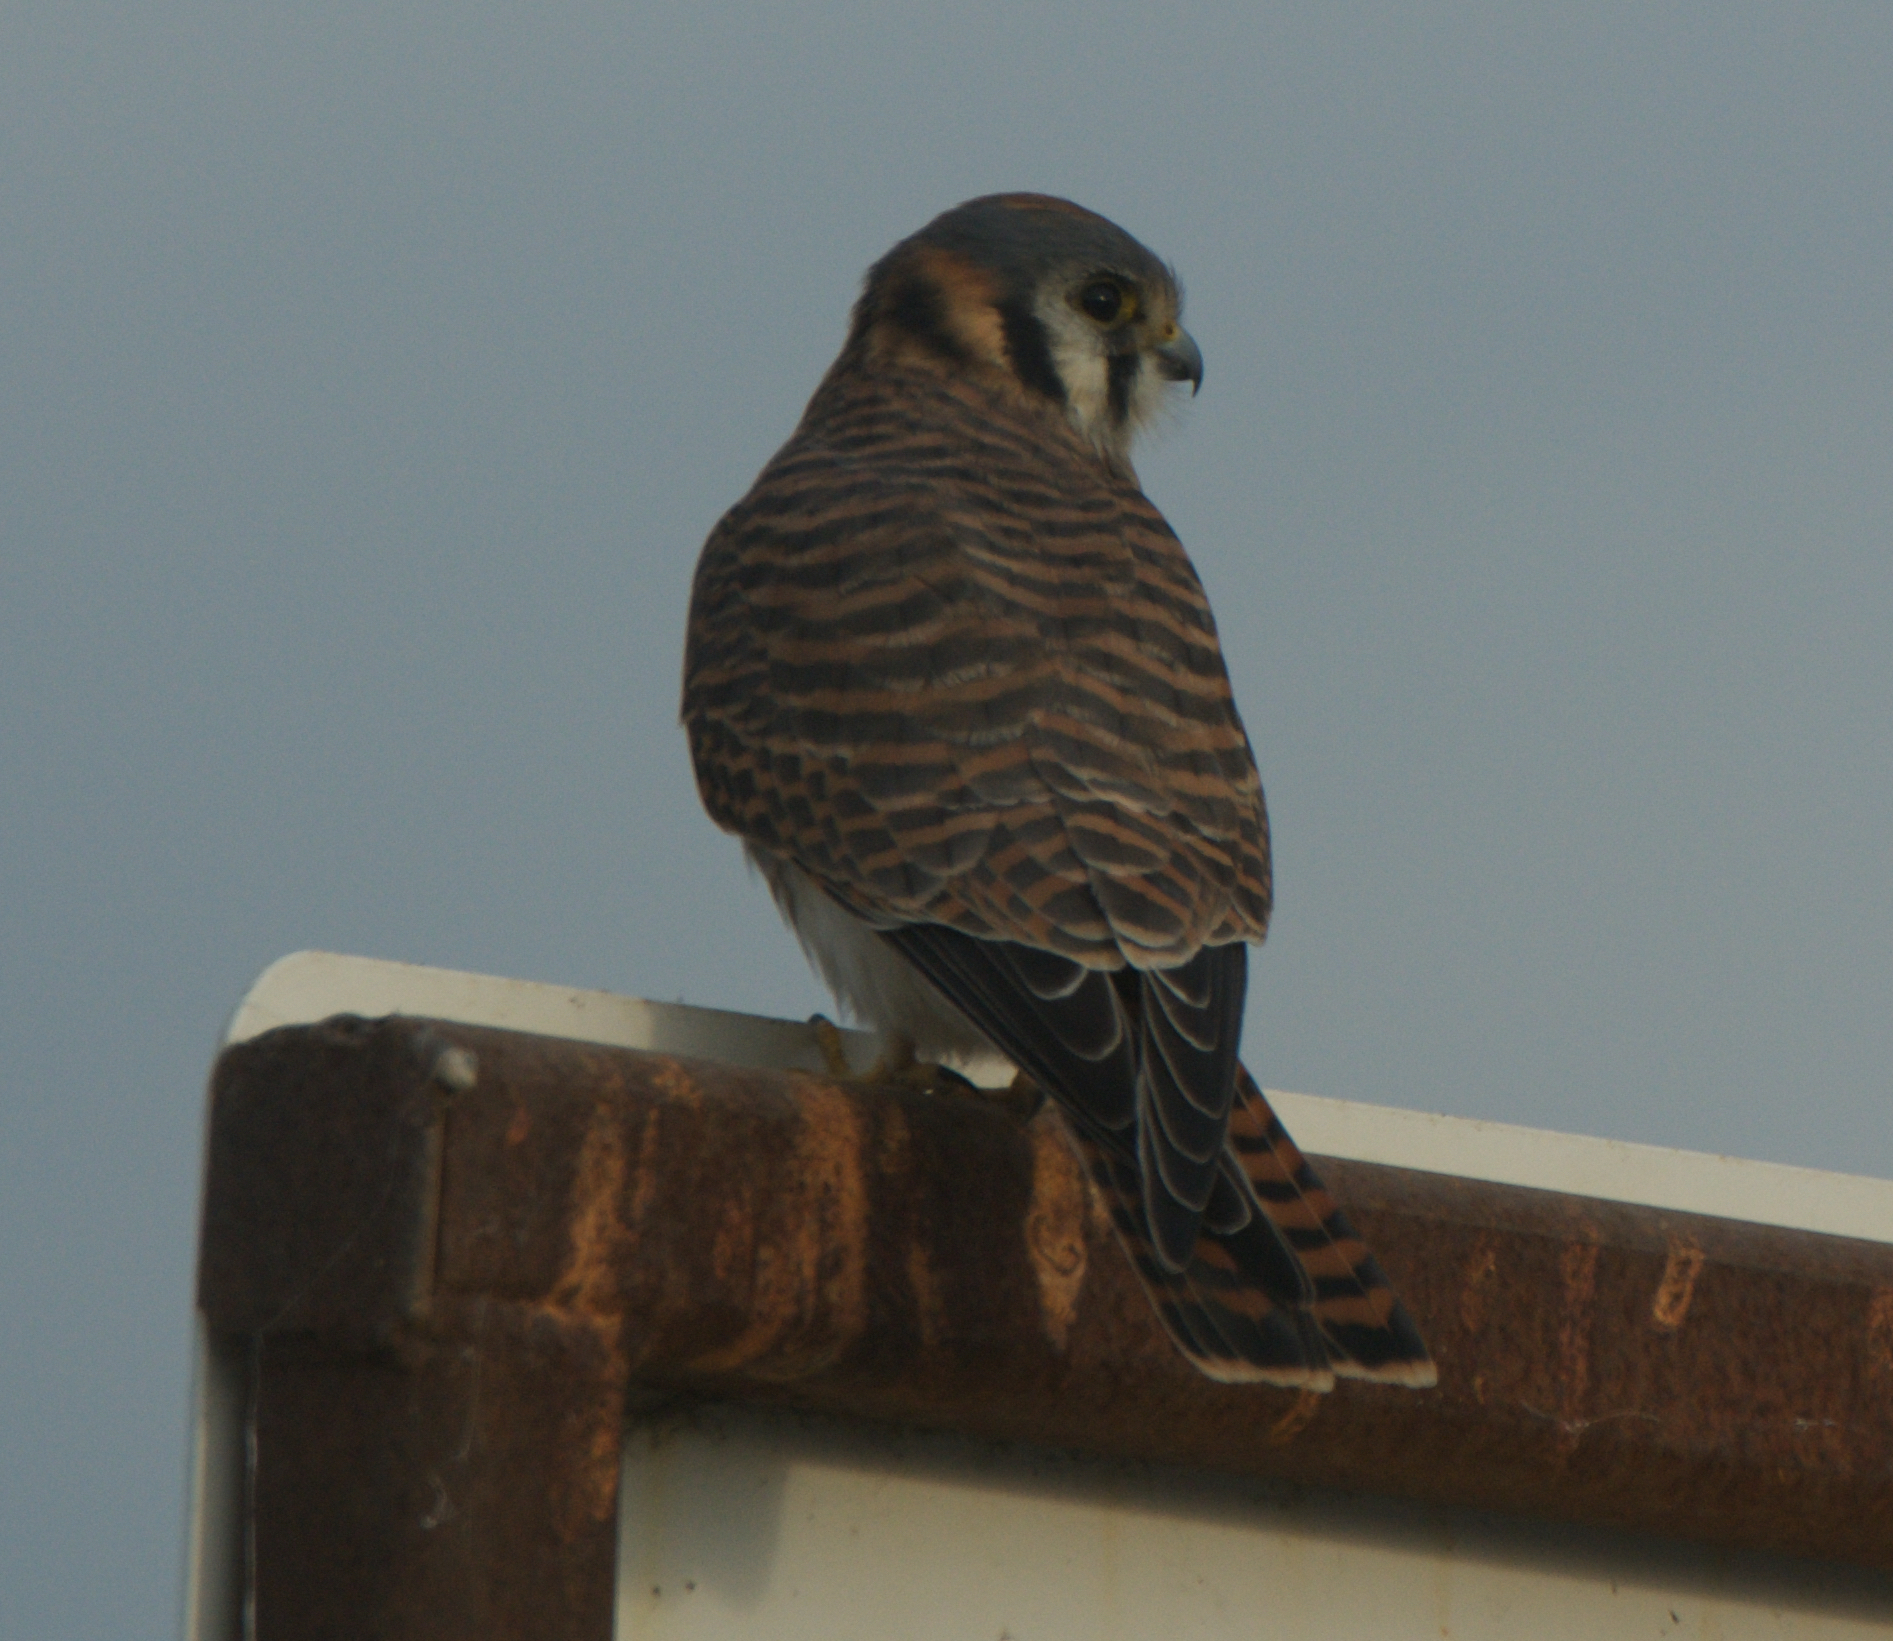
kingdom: Animalia
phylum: Chordata
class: Aves
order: Falconiformes
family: Falconidae
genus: Falco
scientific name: Falco sparverius
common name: American kestrel
